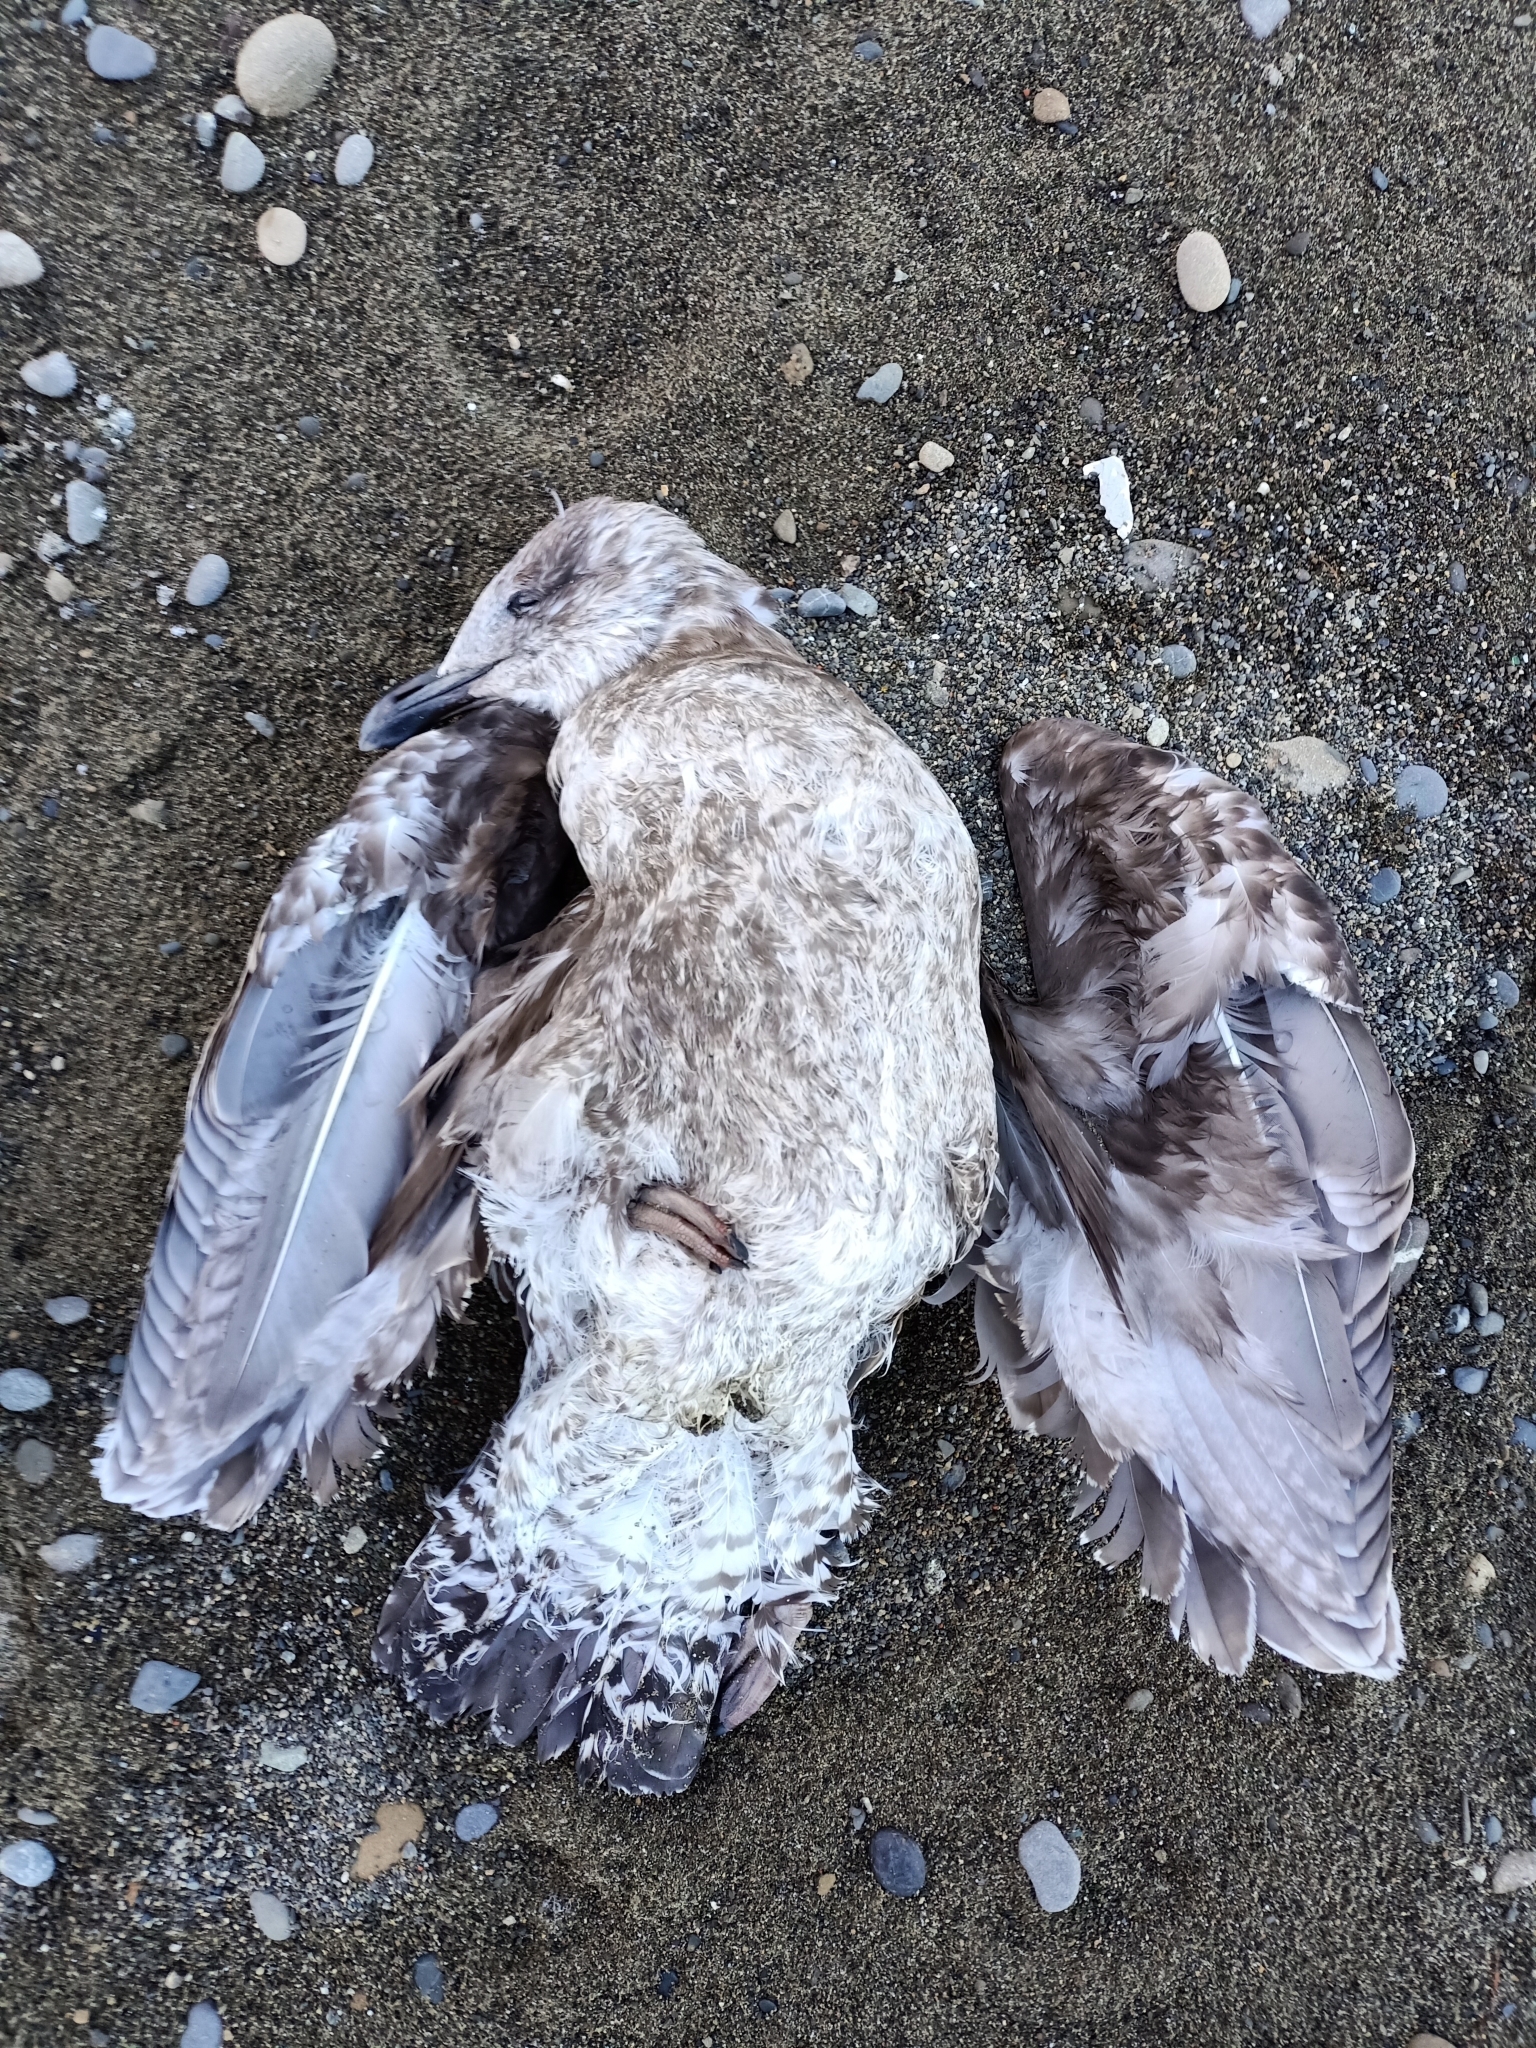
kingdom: Animalia
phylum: Chordata
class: Aves
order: Charadriiformes
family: Laridae
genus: Larus
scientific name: Larus dominicanus
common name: Kelp gull
